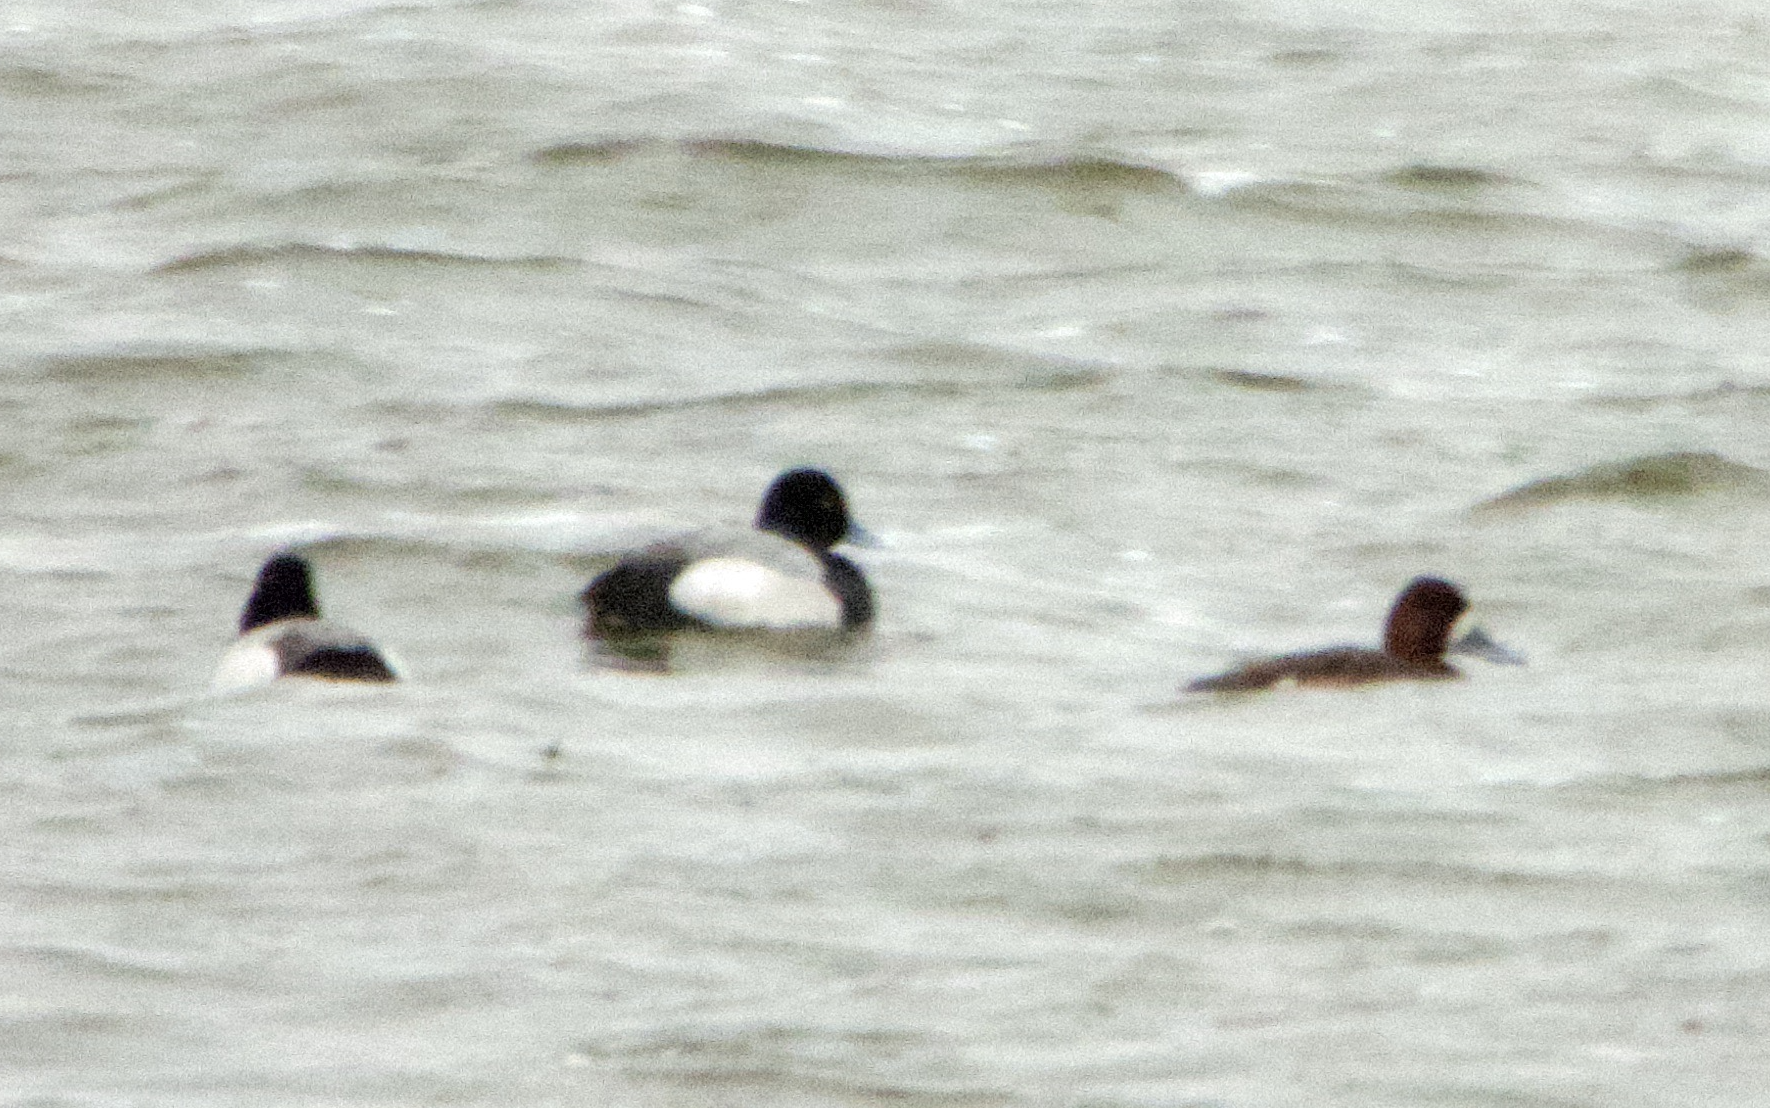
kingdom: Animalia
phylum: Chordata
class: Aves
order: Anseriformes
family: Anatidae
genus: Aythya
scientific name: Aythya affinis
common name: Lesser scaup
